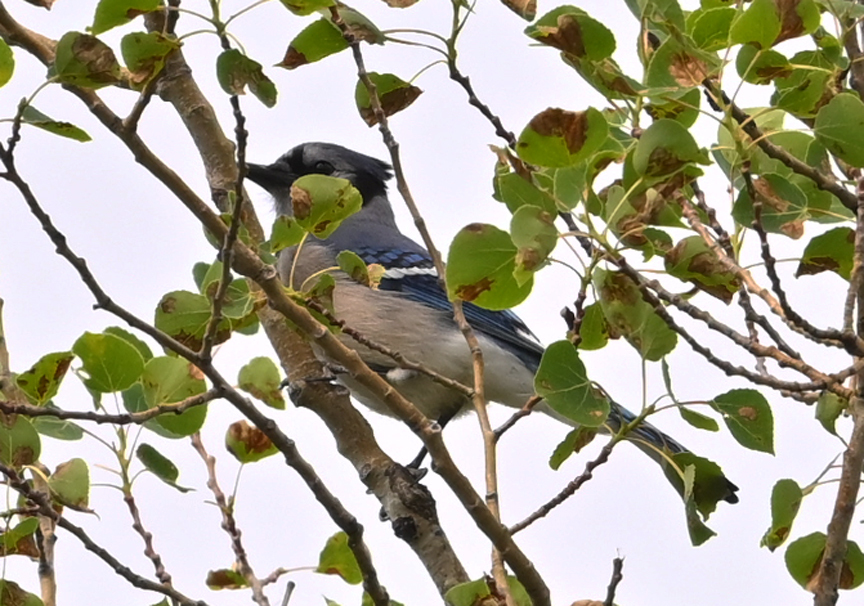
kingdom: Animalia
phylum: Chordata
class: Aves
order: Passeriformes
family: Corvidae
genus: Cyanocitta
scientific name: Cyanocitta cristata
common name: Blue jay
